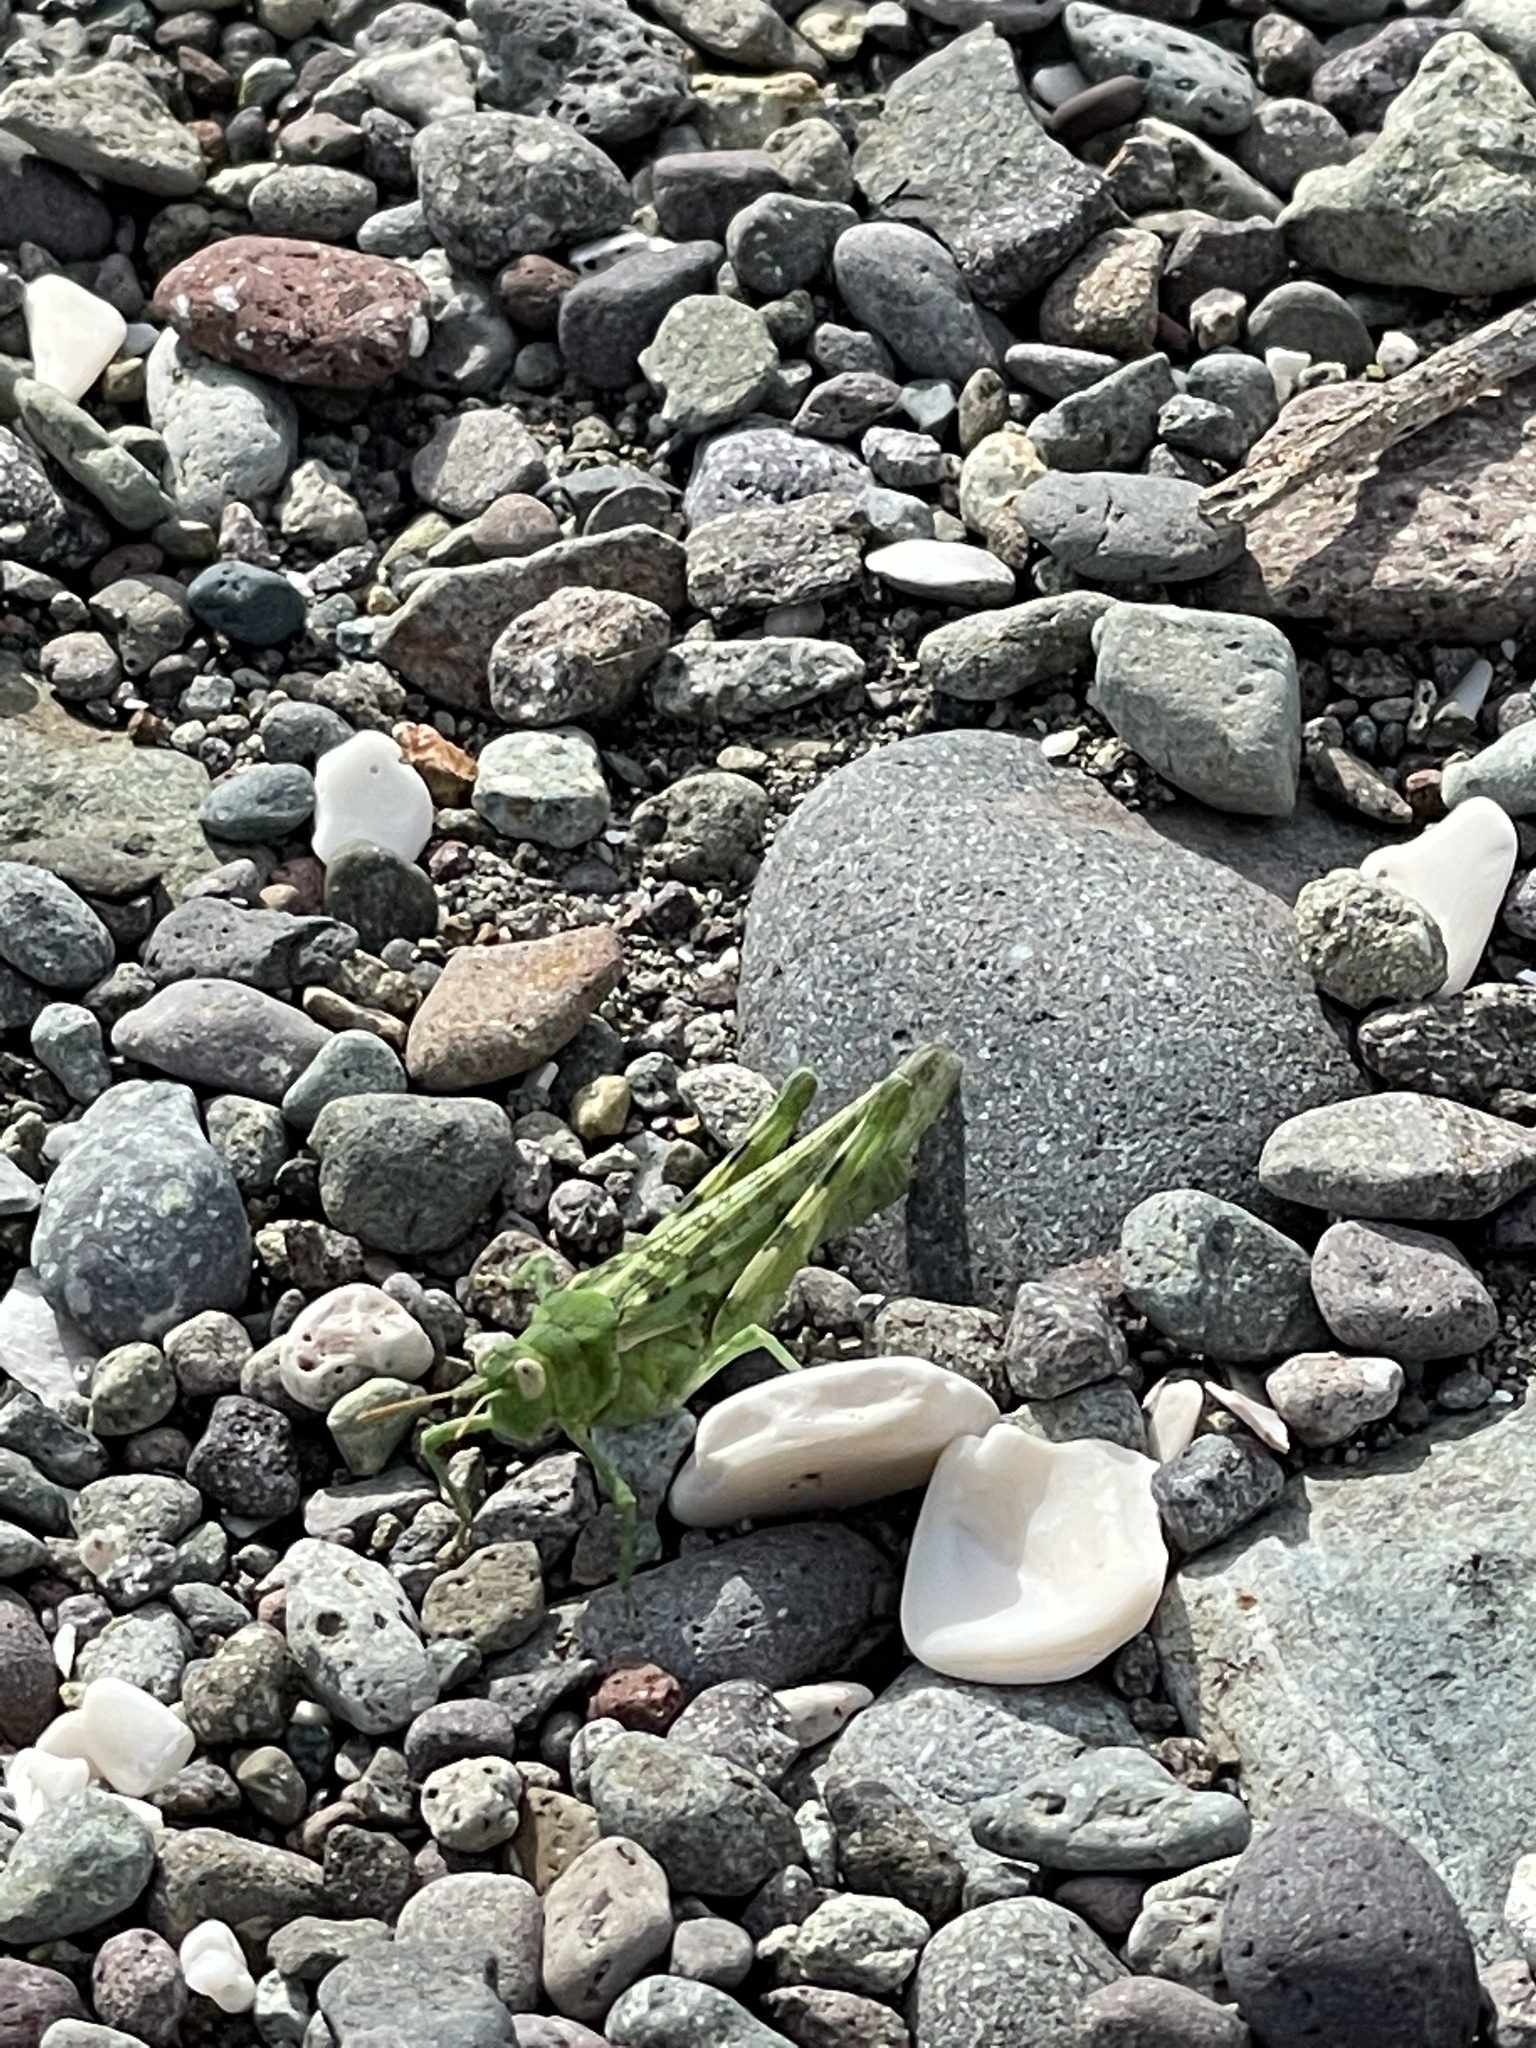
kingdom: Animalia
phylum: Arthropoda
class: Insecta
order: Orthoptera
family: Acrididae
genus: Anconia
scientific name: Anconia integra
